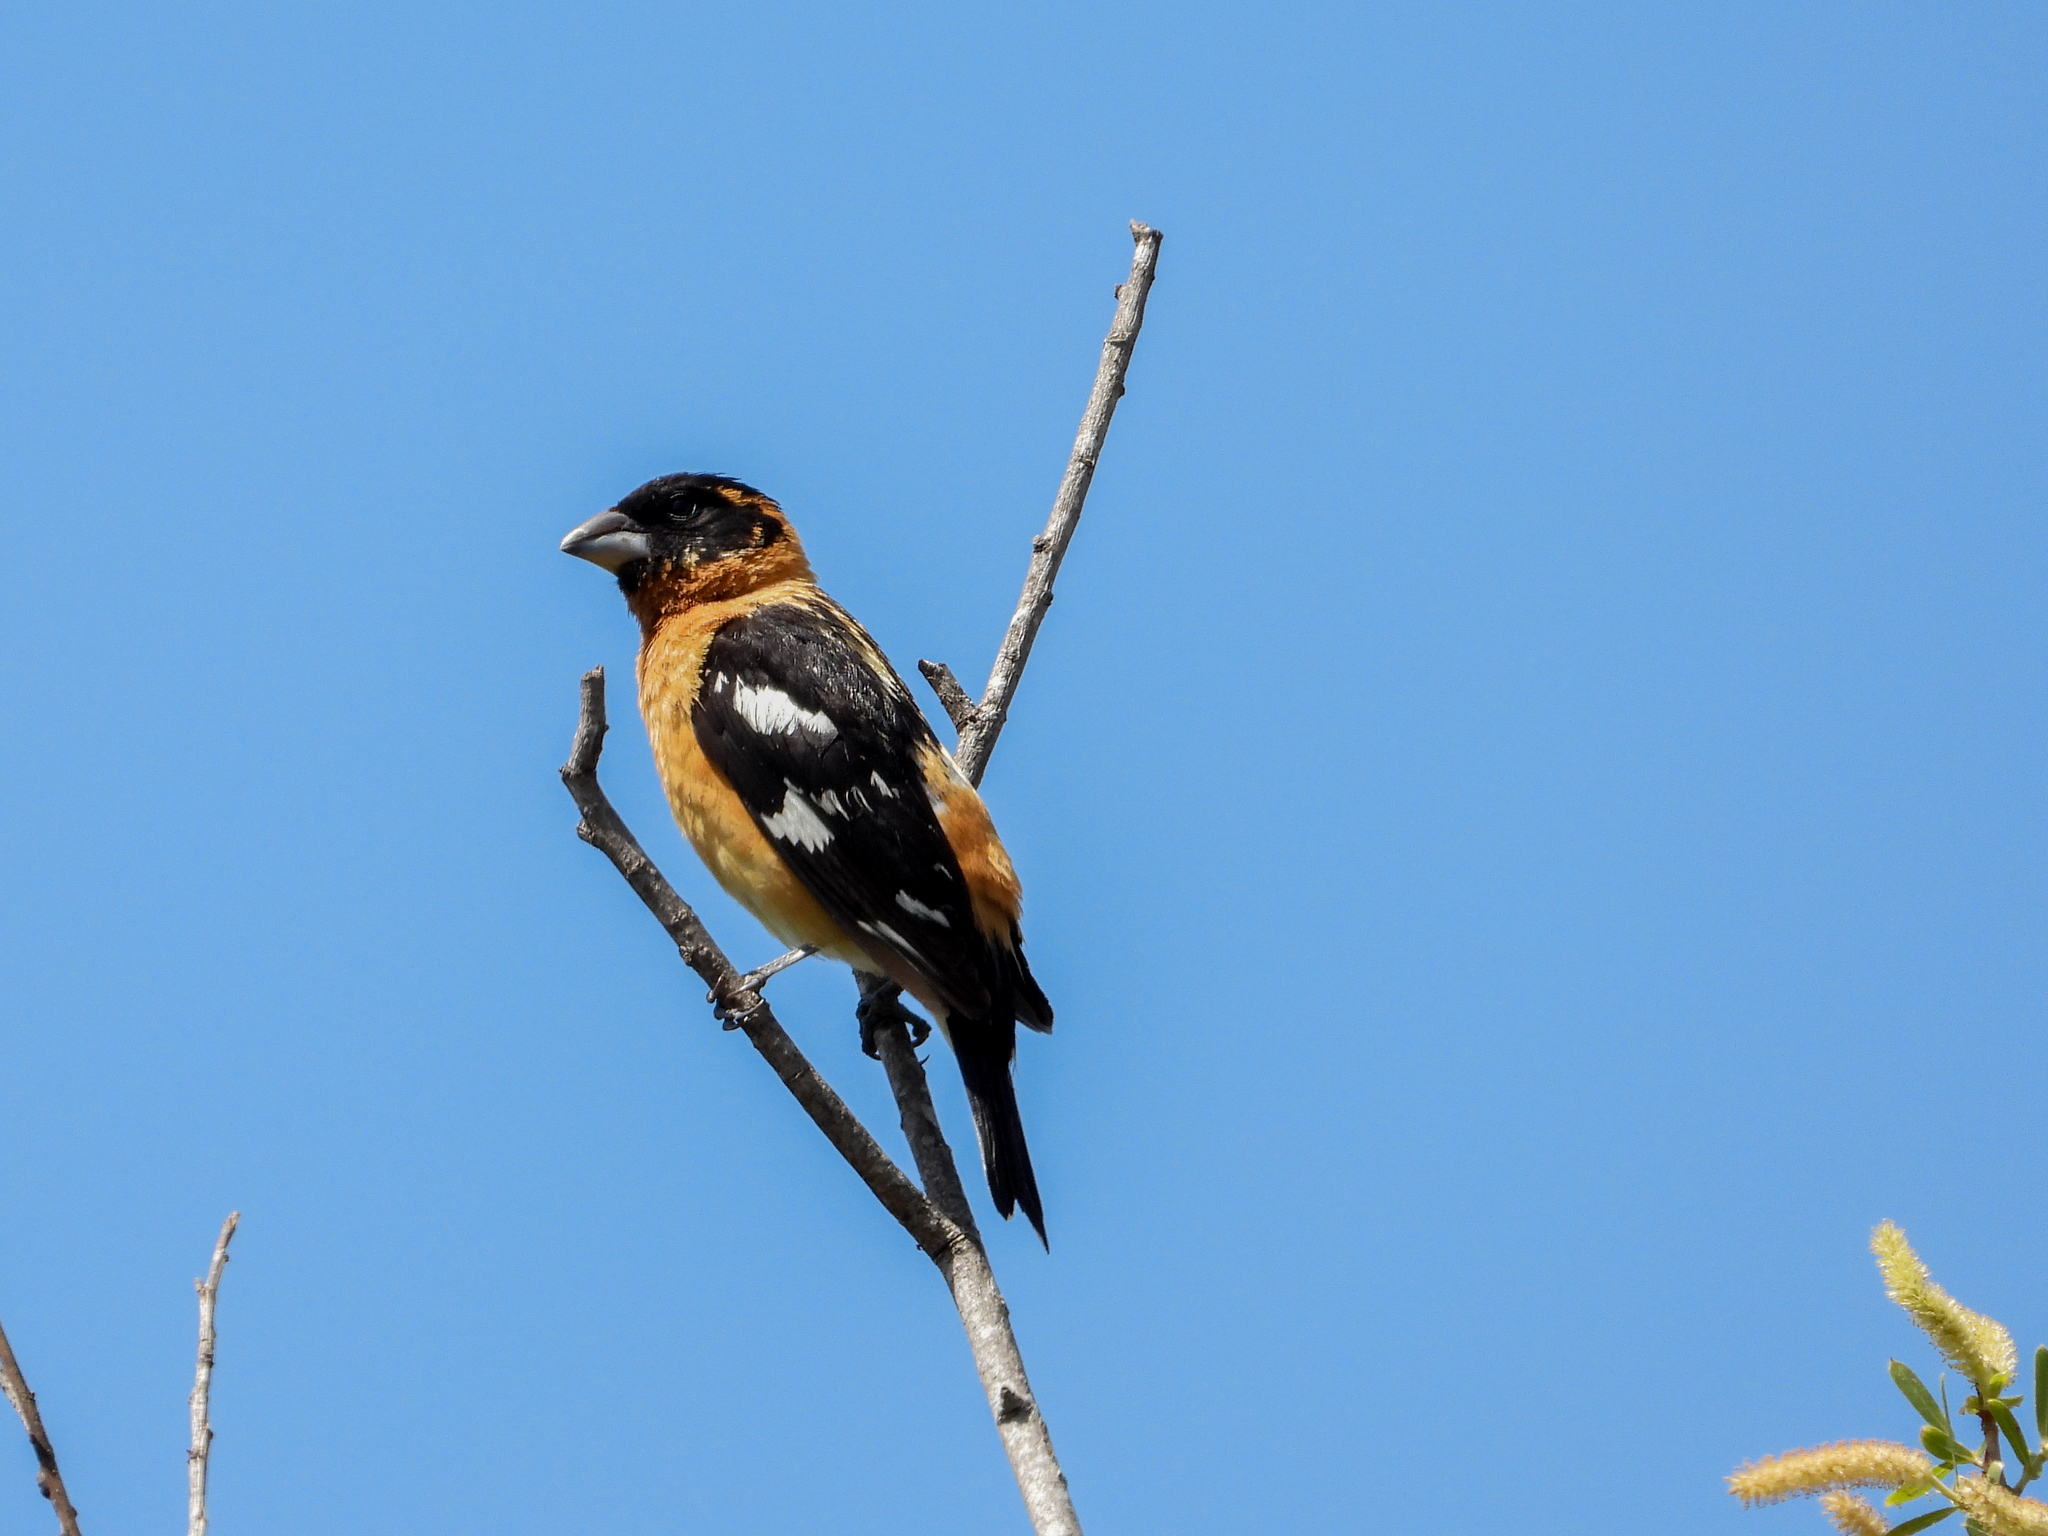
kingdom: Animalia
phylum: Chordata
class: Aves
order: Passeriformes
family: Cardinalidae
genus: Pheucticus
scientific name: Pheucticus melanocephalus
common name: Black-headed grosbeak
